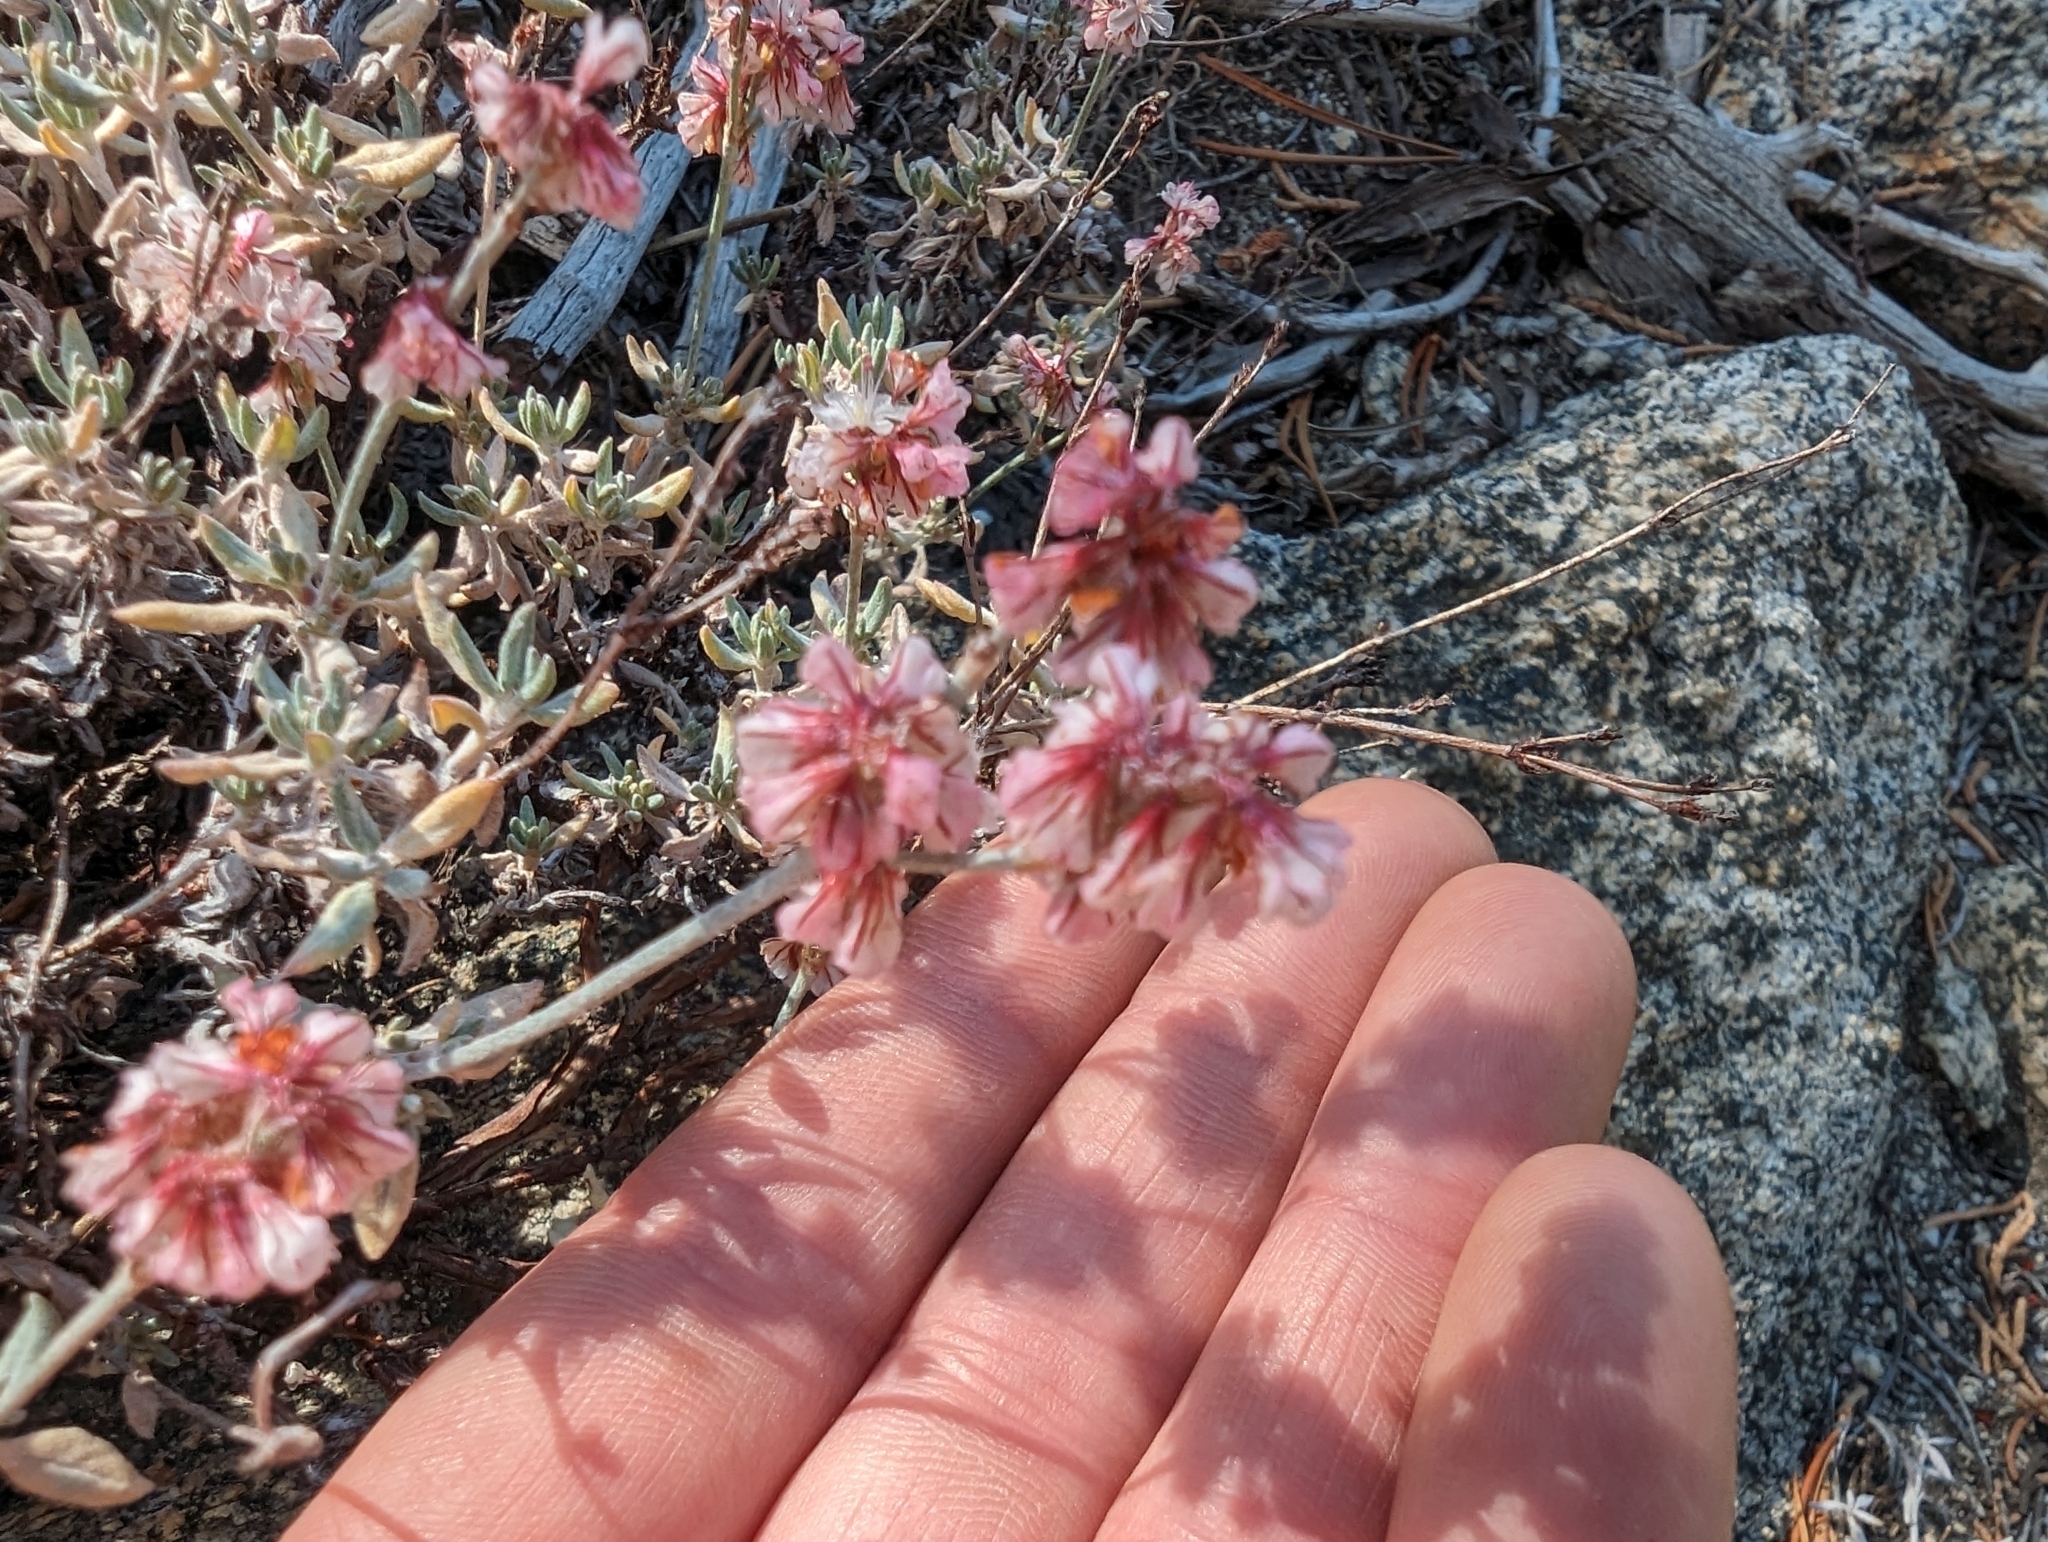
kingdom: Plantae
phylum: Tracheophyta
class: Magnoliopsida
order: Caryophyllales
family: Polygonaceae
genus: Eriogonum
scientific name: Eriogonum wrightii
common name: Bastard-sage
